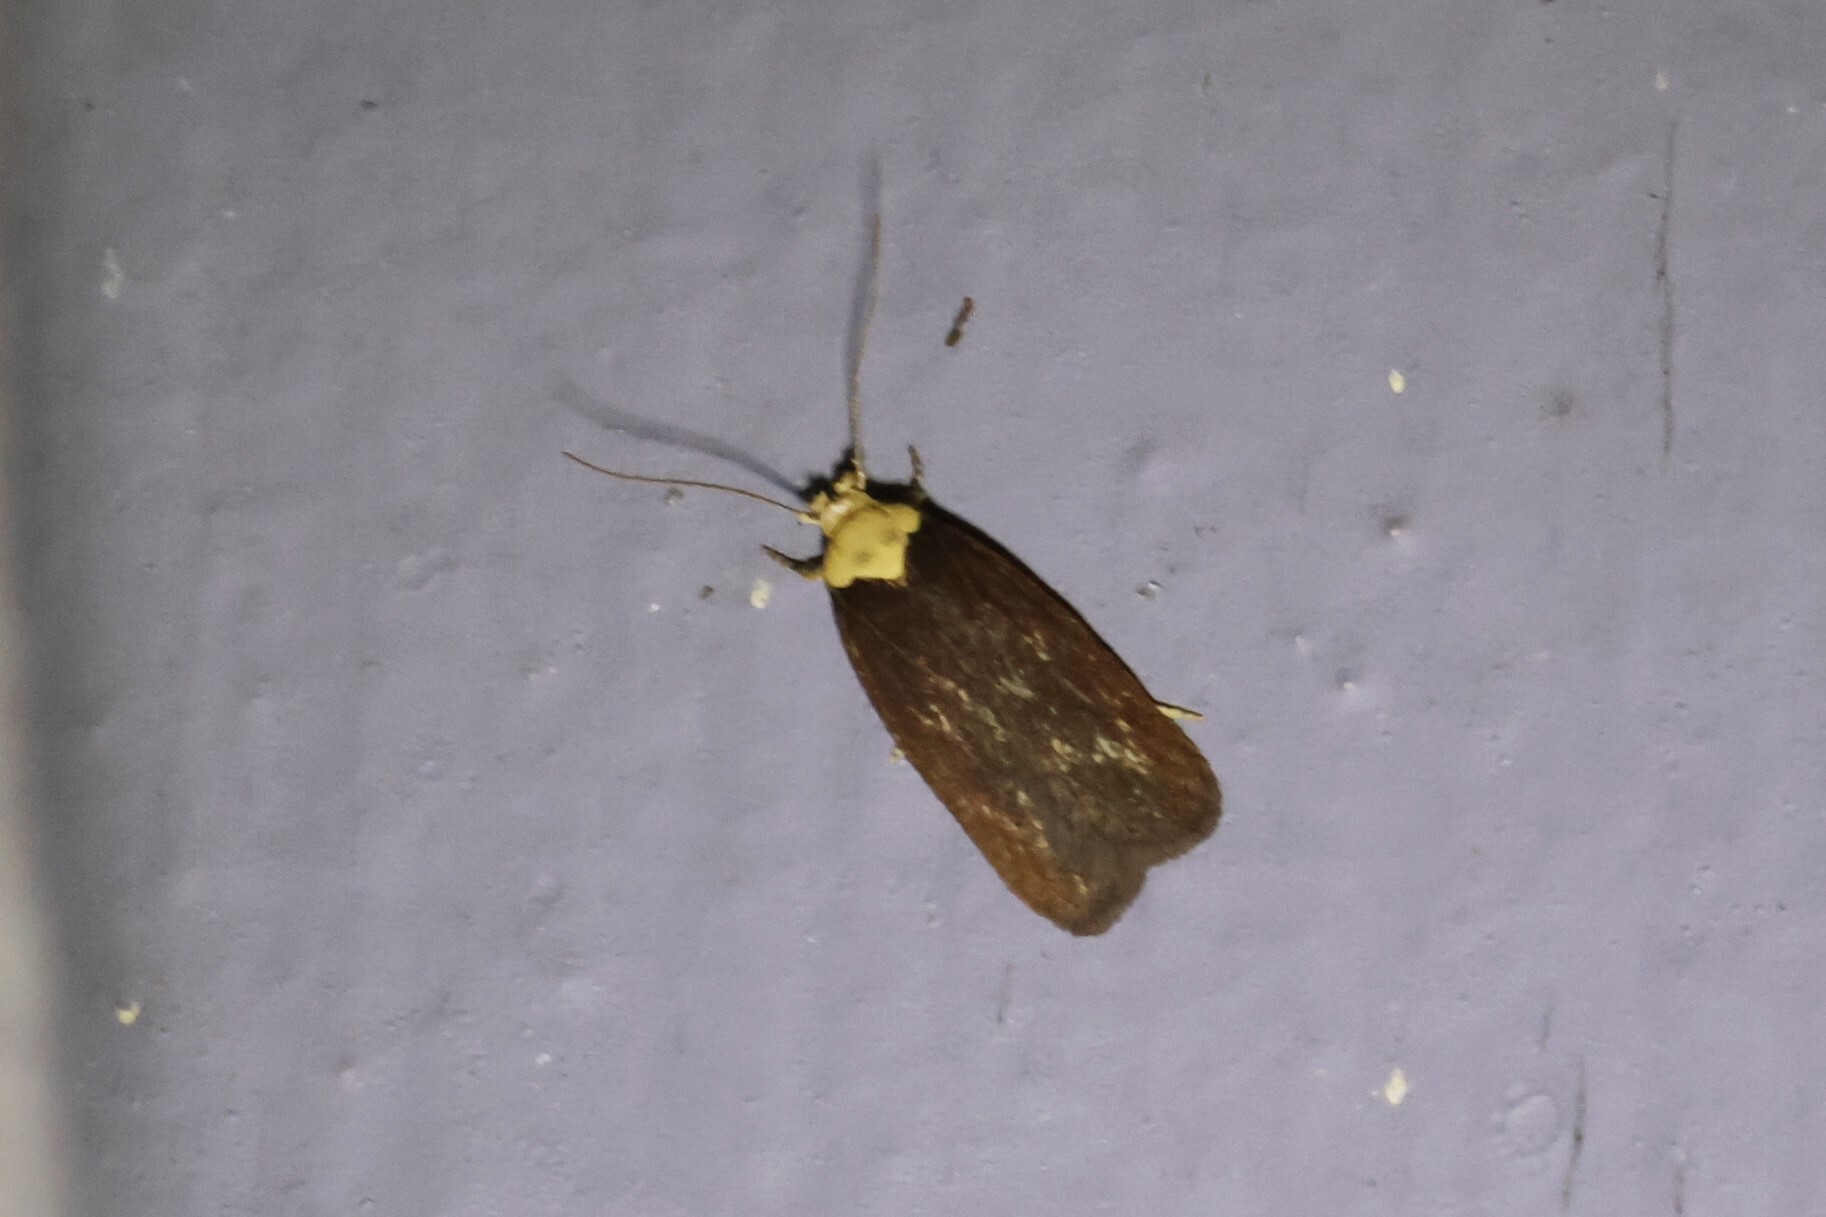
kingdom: Animalia
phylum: Arthropoda
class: Insecta
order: Lepidoptera
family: Depressariidae
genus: Depressaria
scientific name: Depressaria depressana
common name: Lost flat-body
